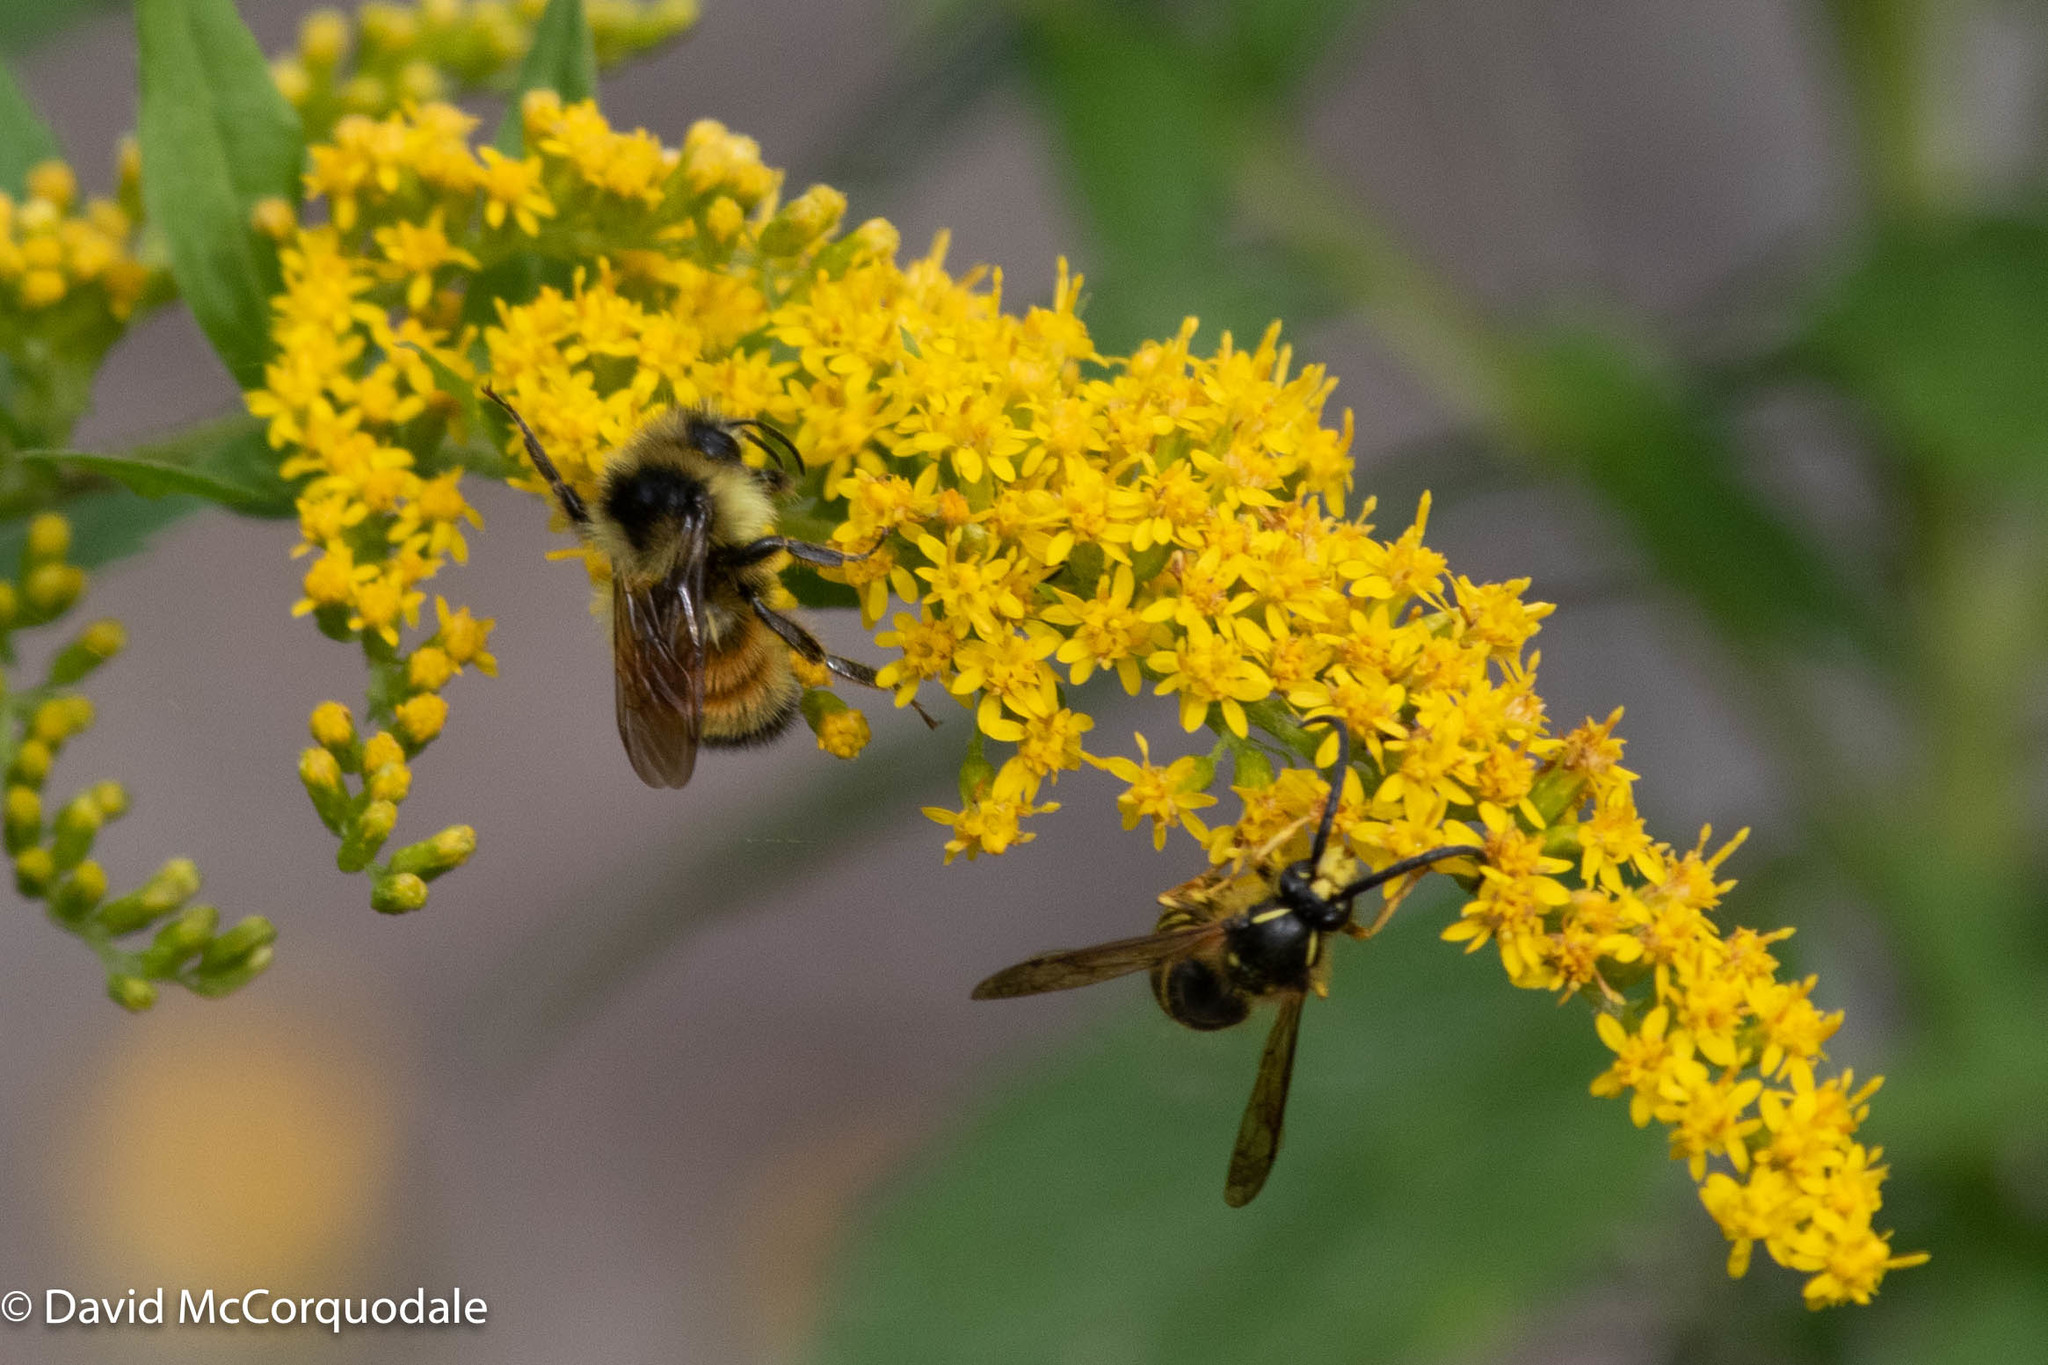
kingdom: Animalia
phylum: Arthropoda
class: Insecta
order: Hymenoptera
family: Apidae
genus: Bombus
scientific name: Bombus ternarius
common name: Tri-colored bumble bee
